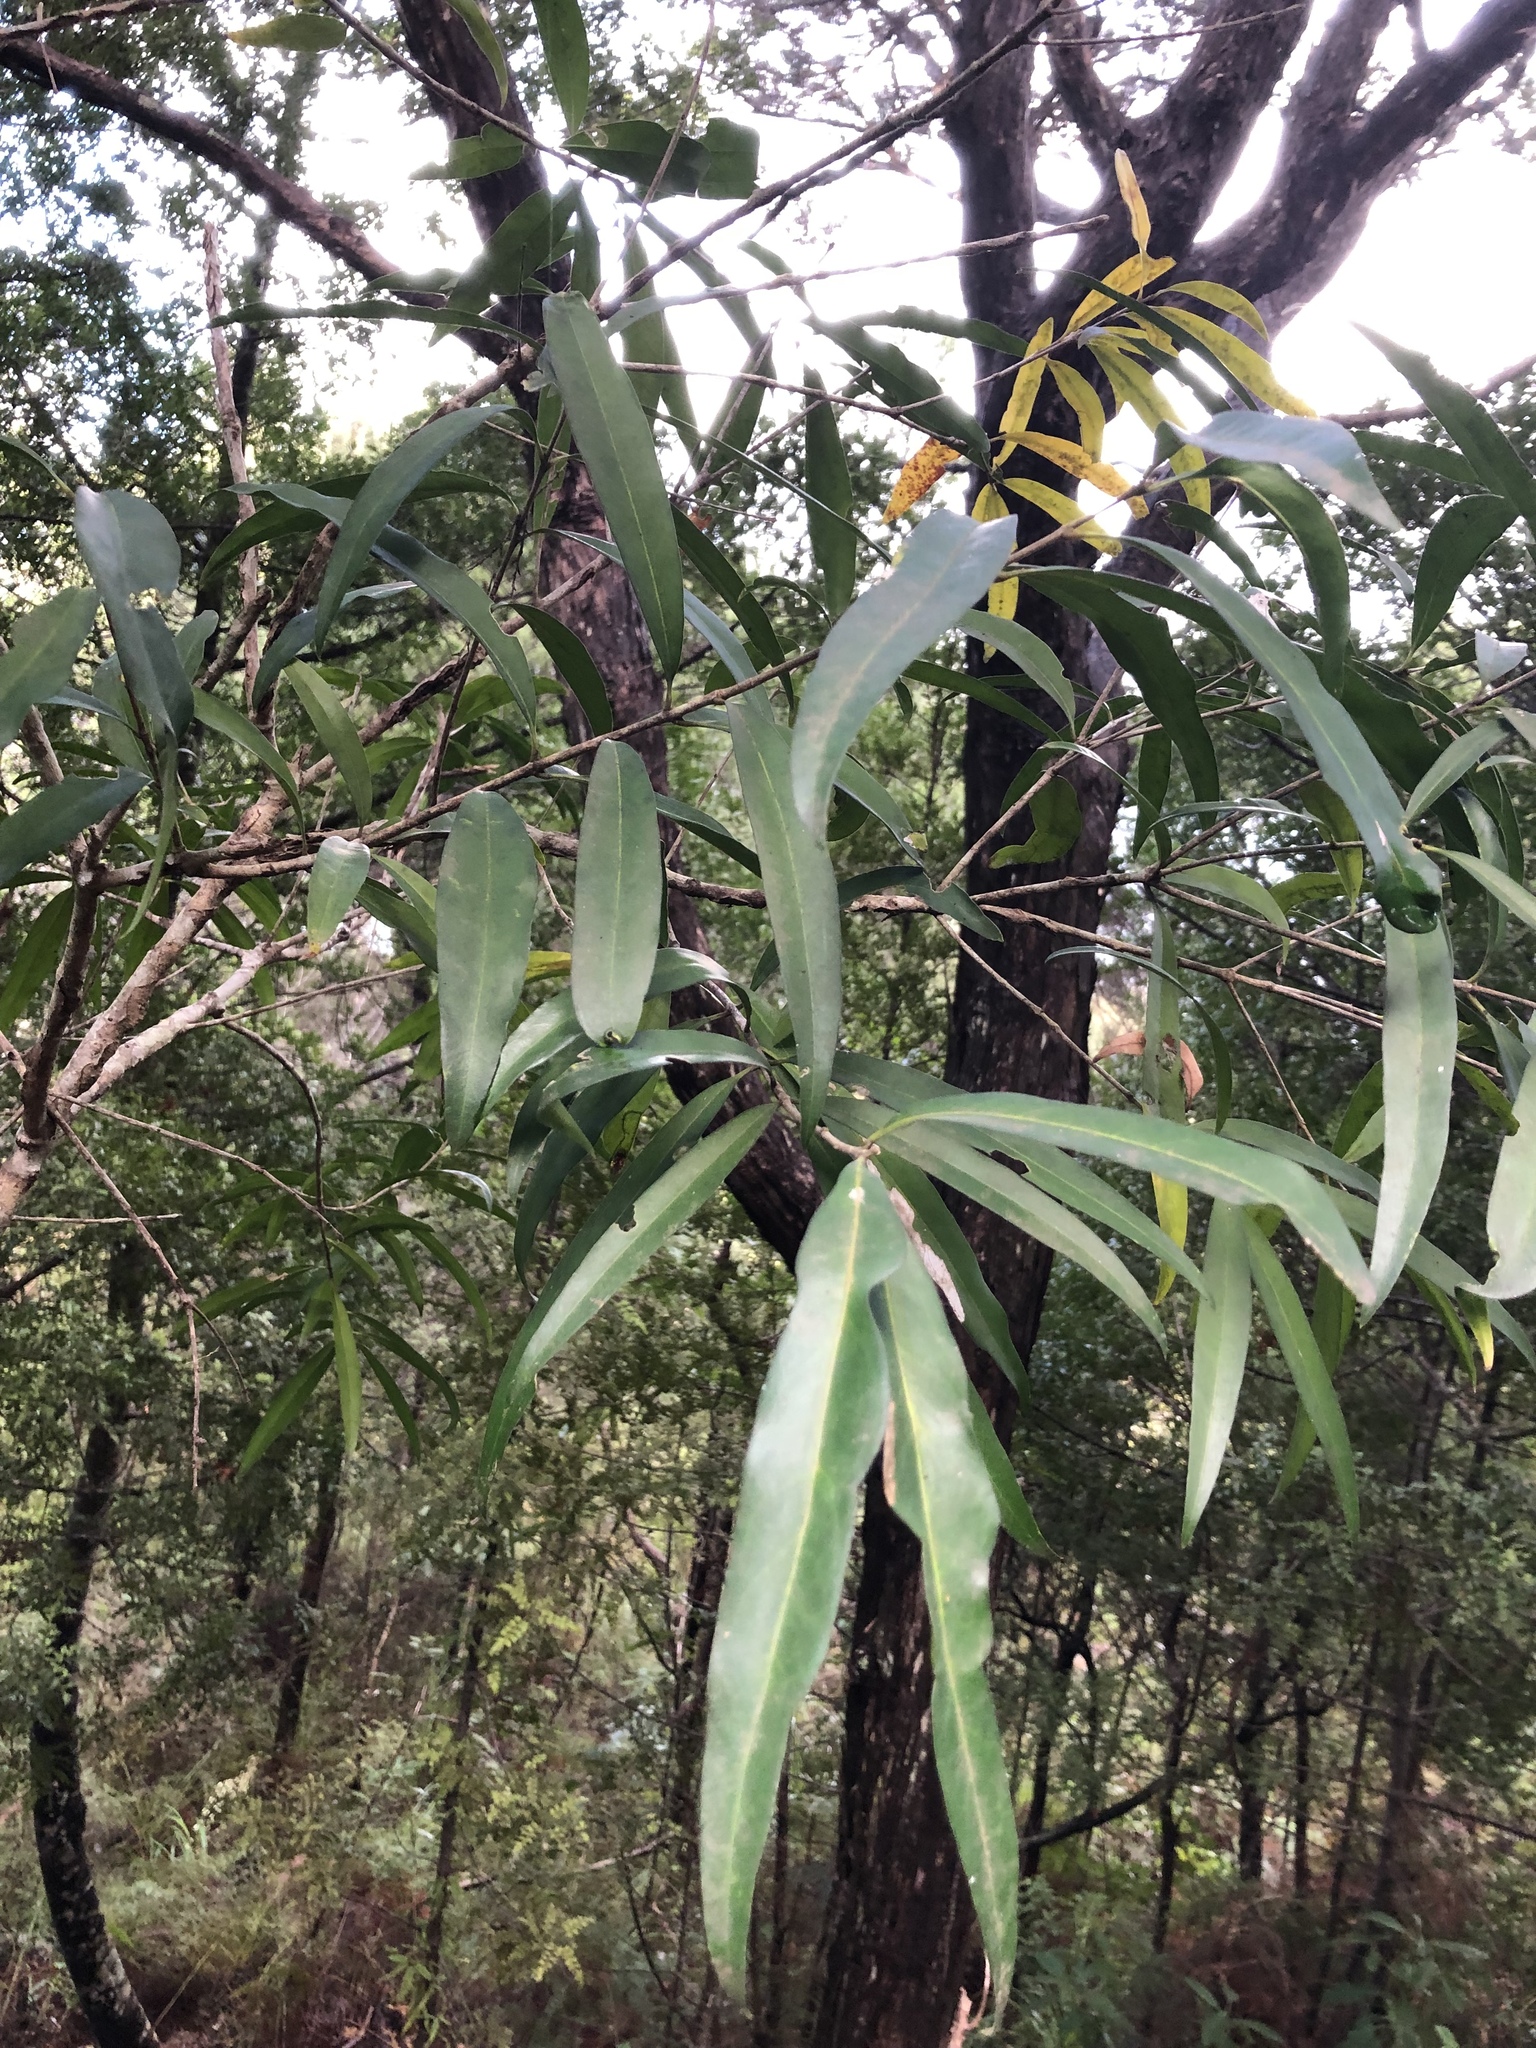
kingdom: Plantae
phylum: Tracheophyta
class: Magnoliopsida
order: Santalales
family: Nanodeaceae
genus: Mida
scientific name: Mida salicifolia
